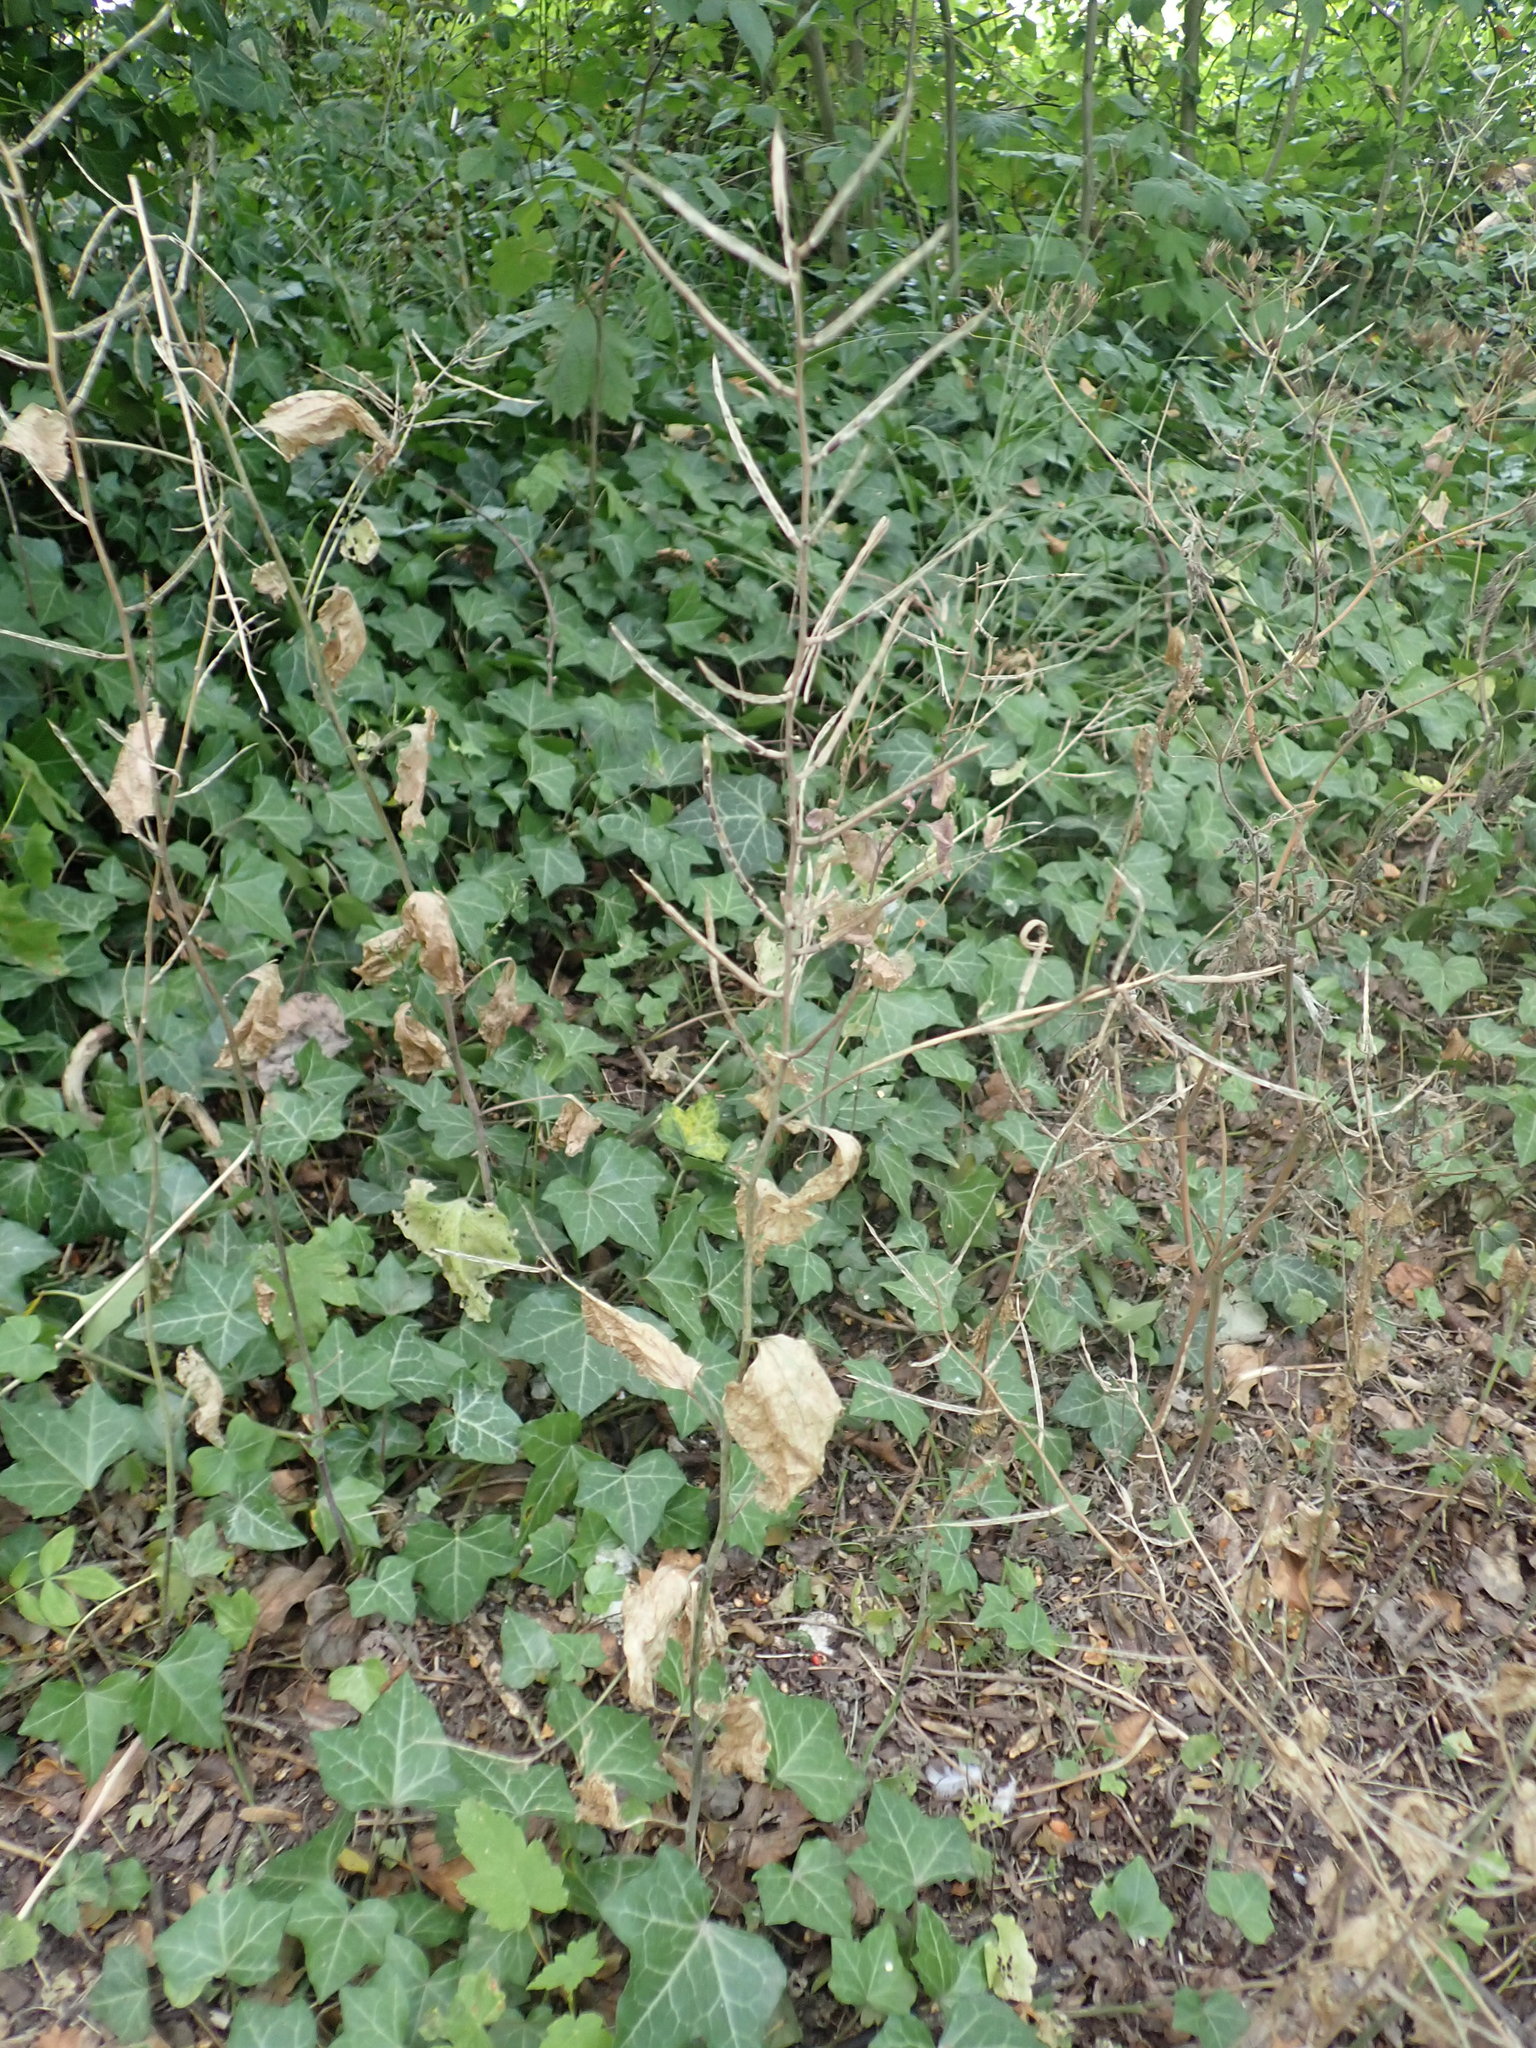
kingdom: Plantae
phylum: Tracheophyta
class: Magnoliopsida
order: Brassicales
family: Brassicaceae
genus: Alliaria
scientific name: Alliaria petiolata
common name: Garlic mustard
